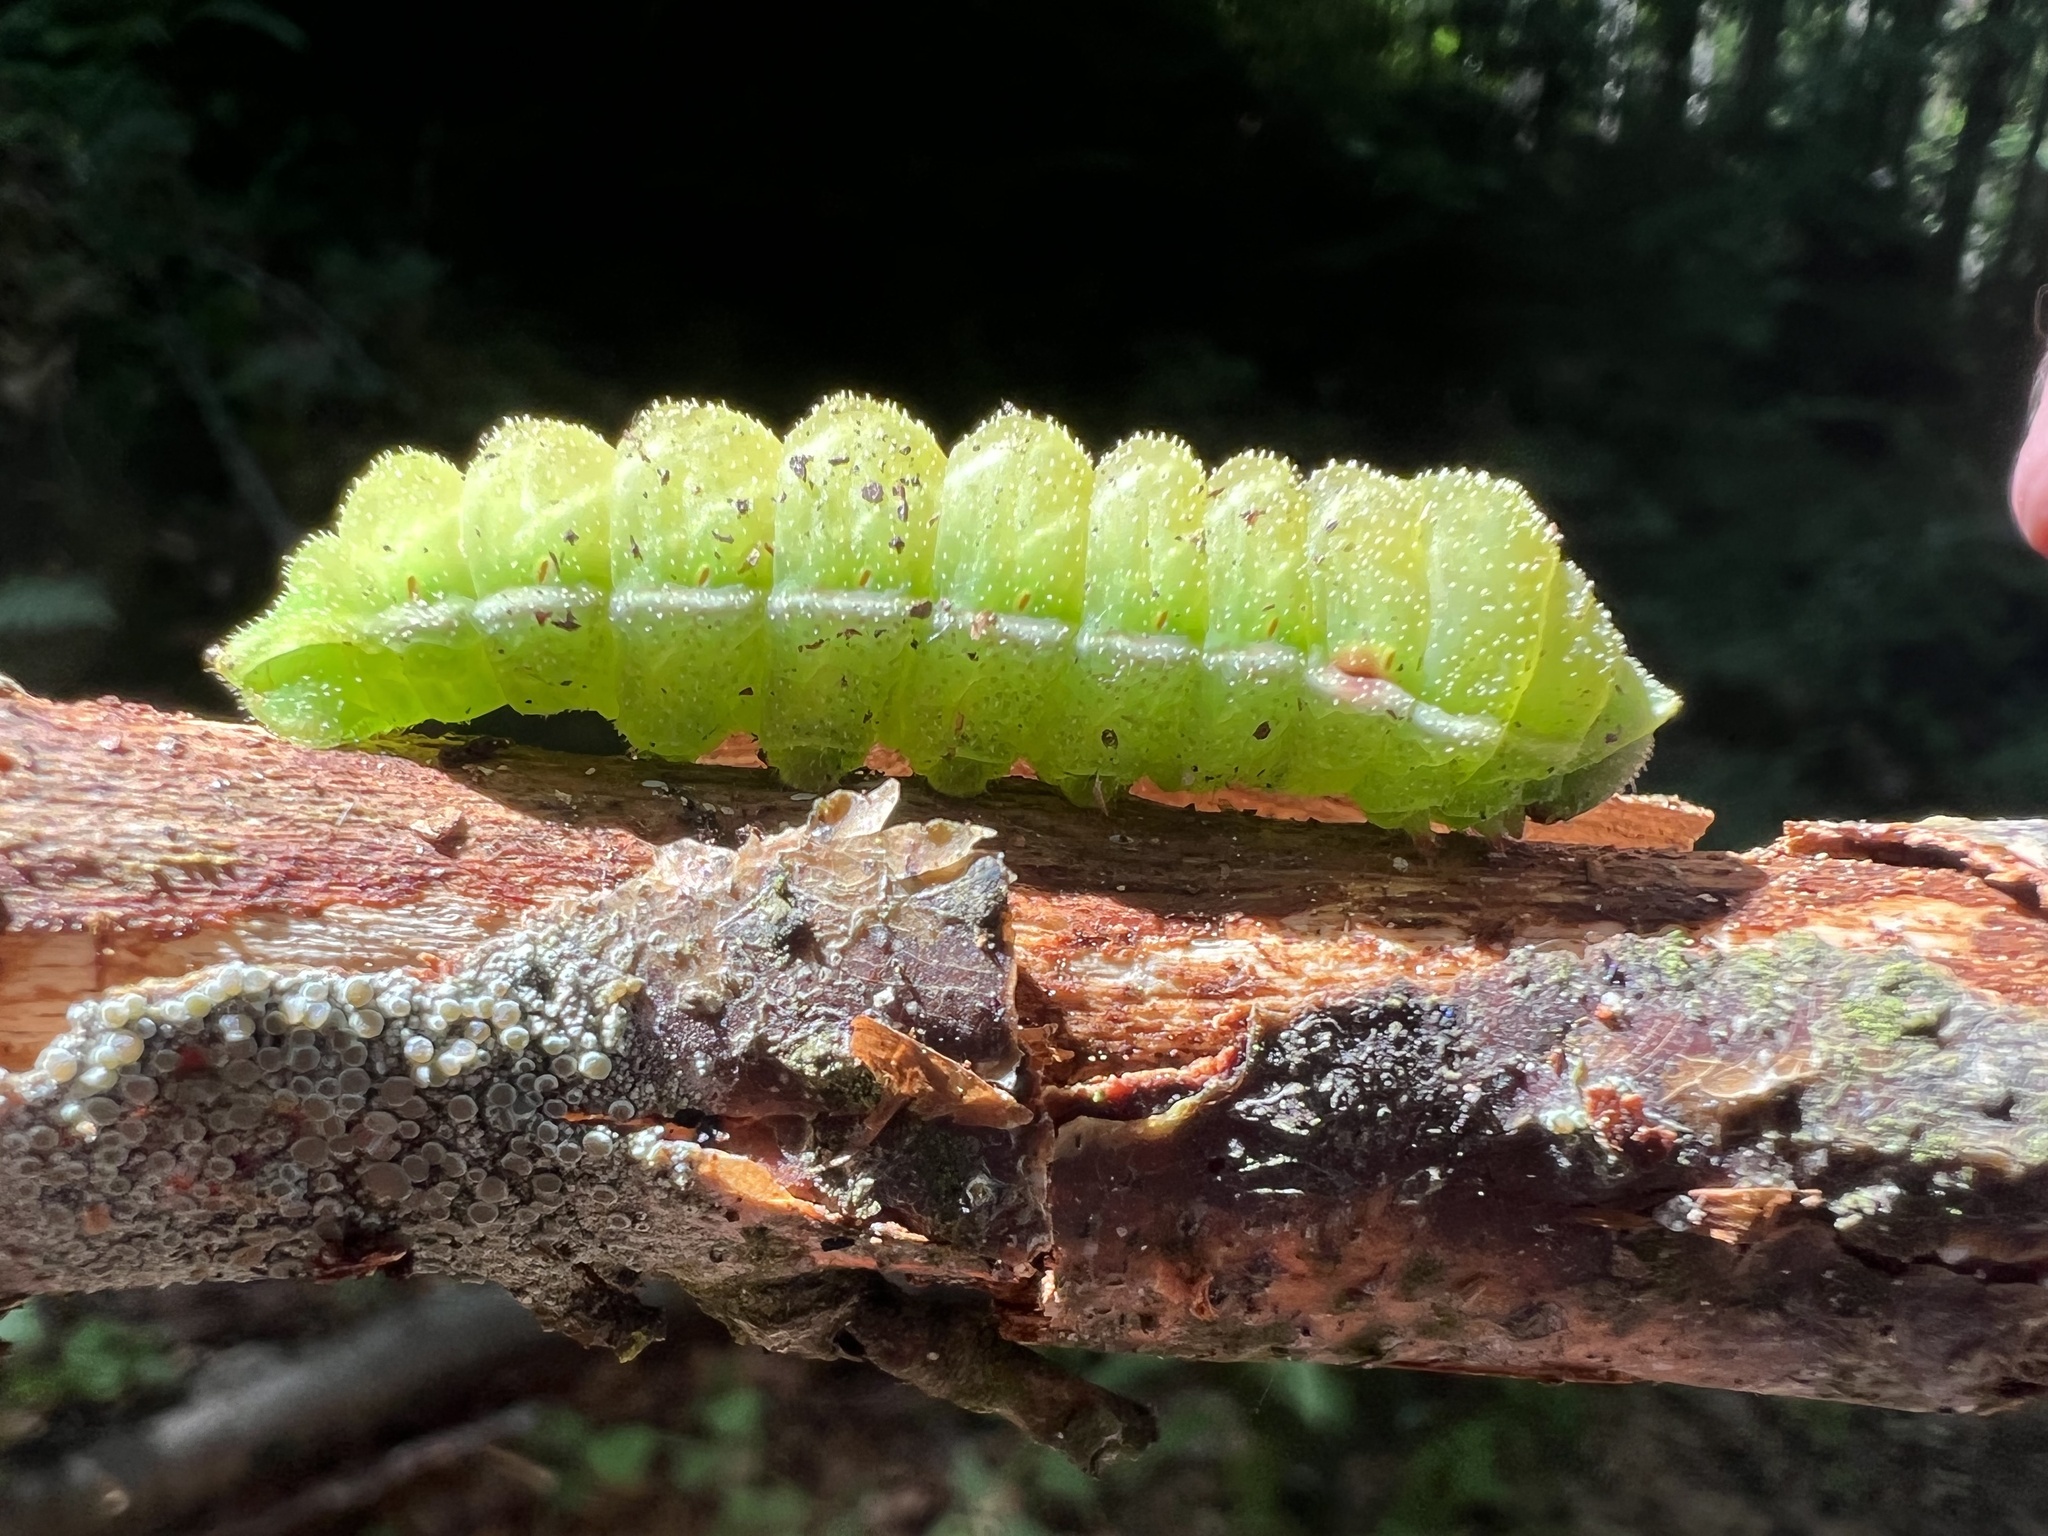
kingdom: Animalia
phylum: Arthropoda
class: Insecta
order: Lepidoptera
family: Saturniidae
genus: Aglia
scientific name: Aglia tau
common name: Tau emperor
